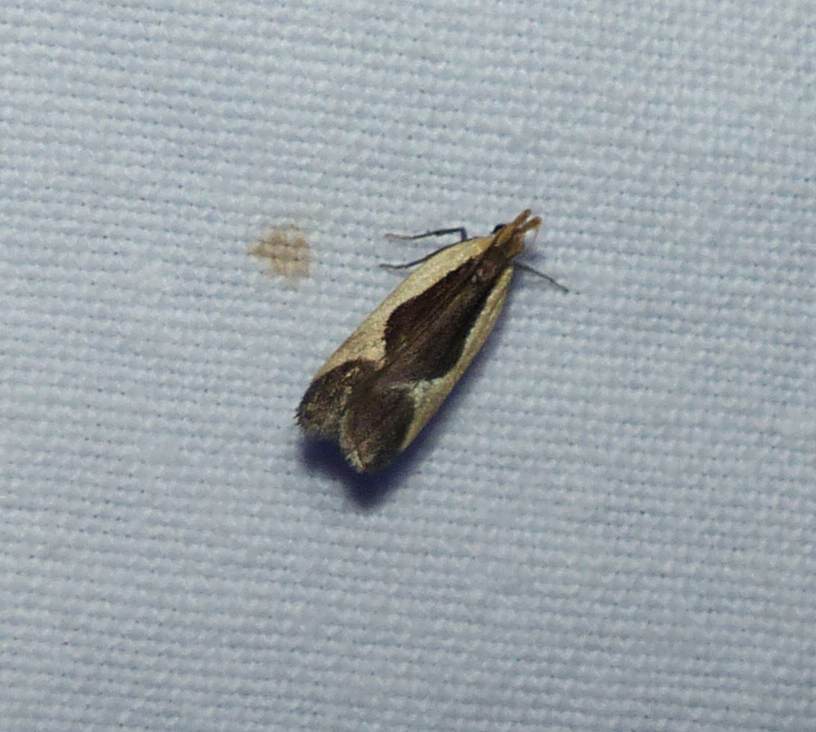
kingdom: Animalia
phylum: Arthropoda
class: Insecta
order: Lepidoptera
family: Gelechiidae
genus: Dichomeris
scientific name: Dichomeris flavocostella
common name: Cream-edged dichomeris moth
